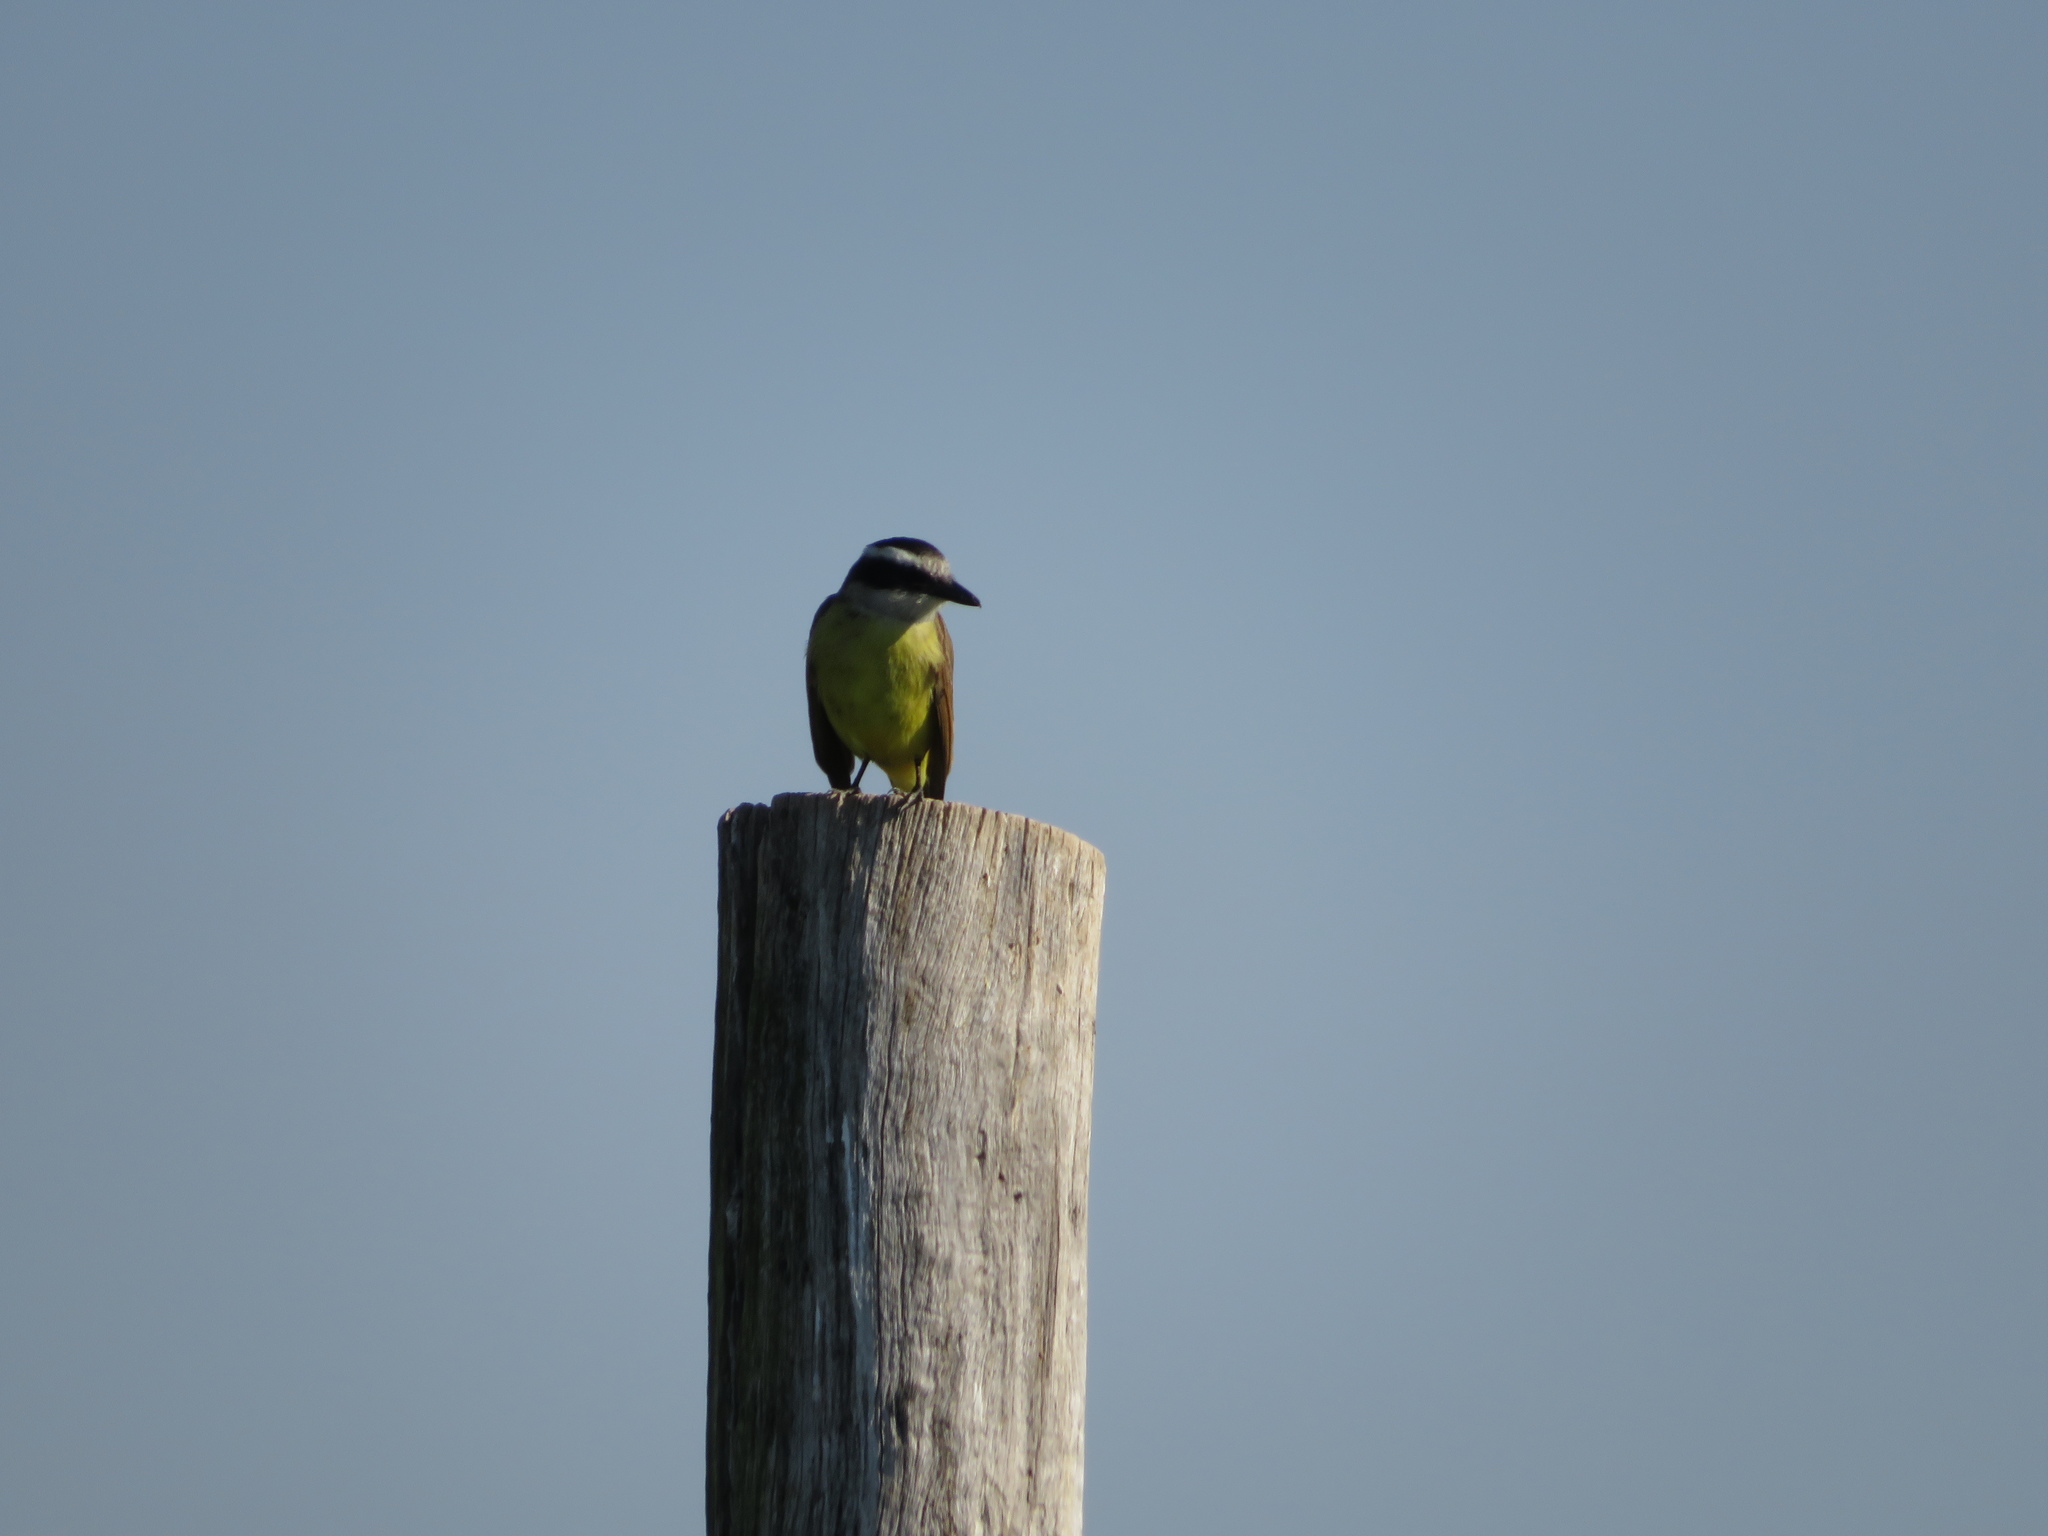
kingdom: Animalia
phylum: Chordata
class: Aves
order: Passeriformes
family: Tyrannidae
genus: Pitangus
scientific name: Pitangus sulphuratus
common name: Great kiskadee
